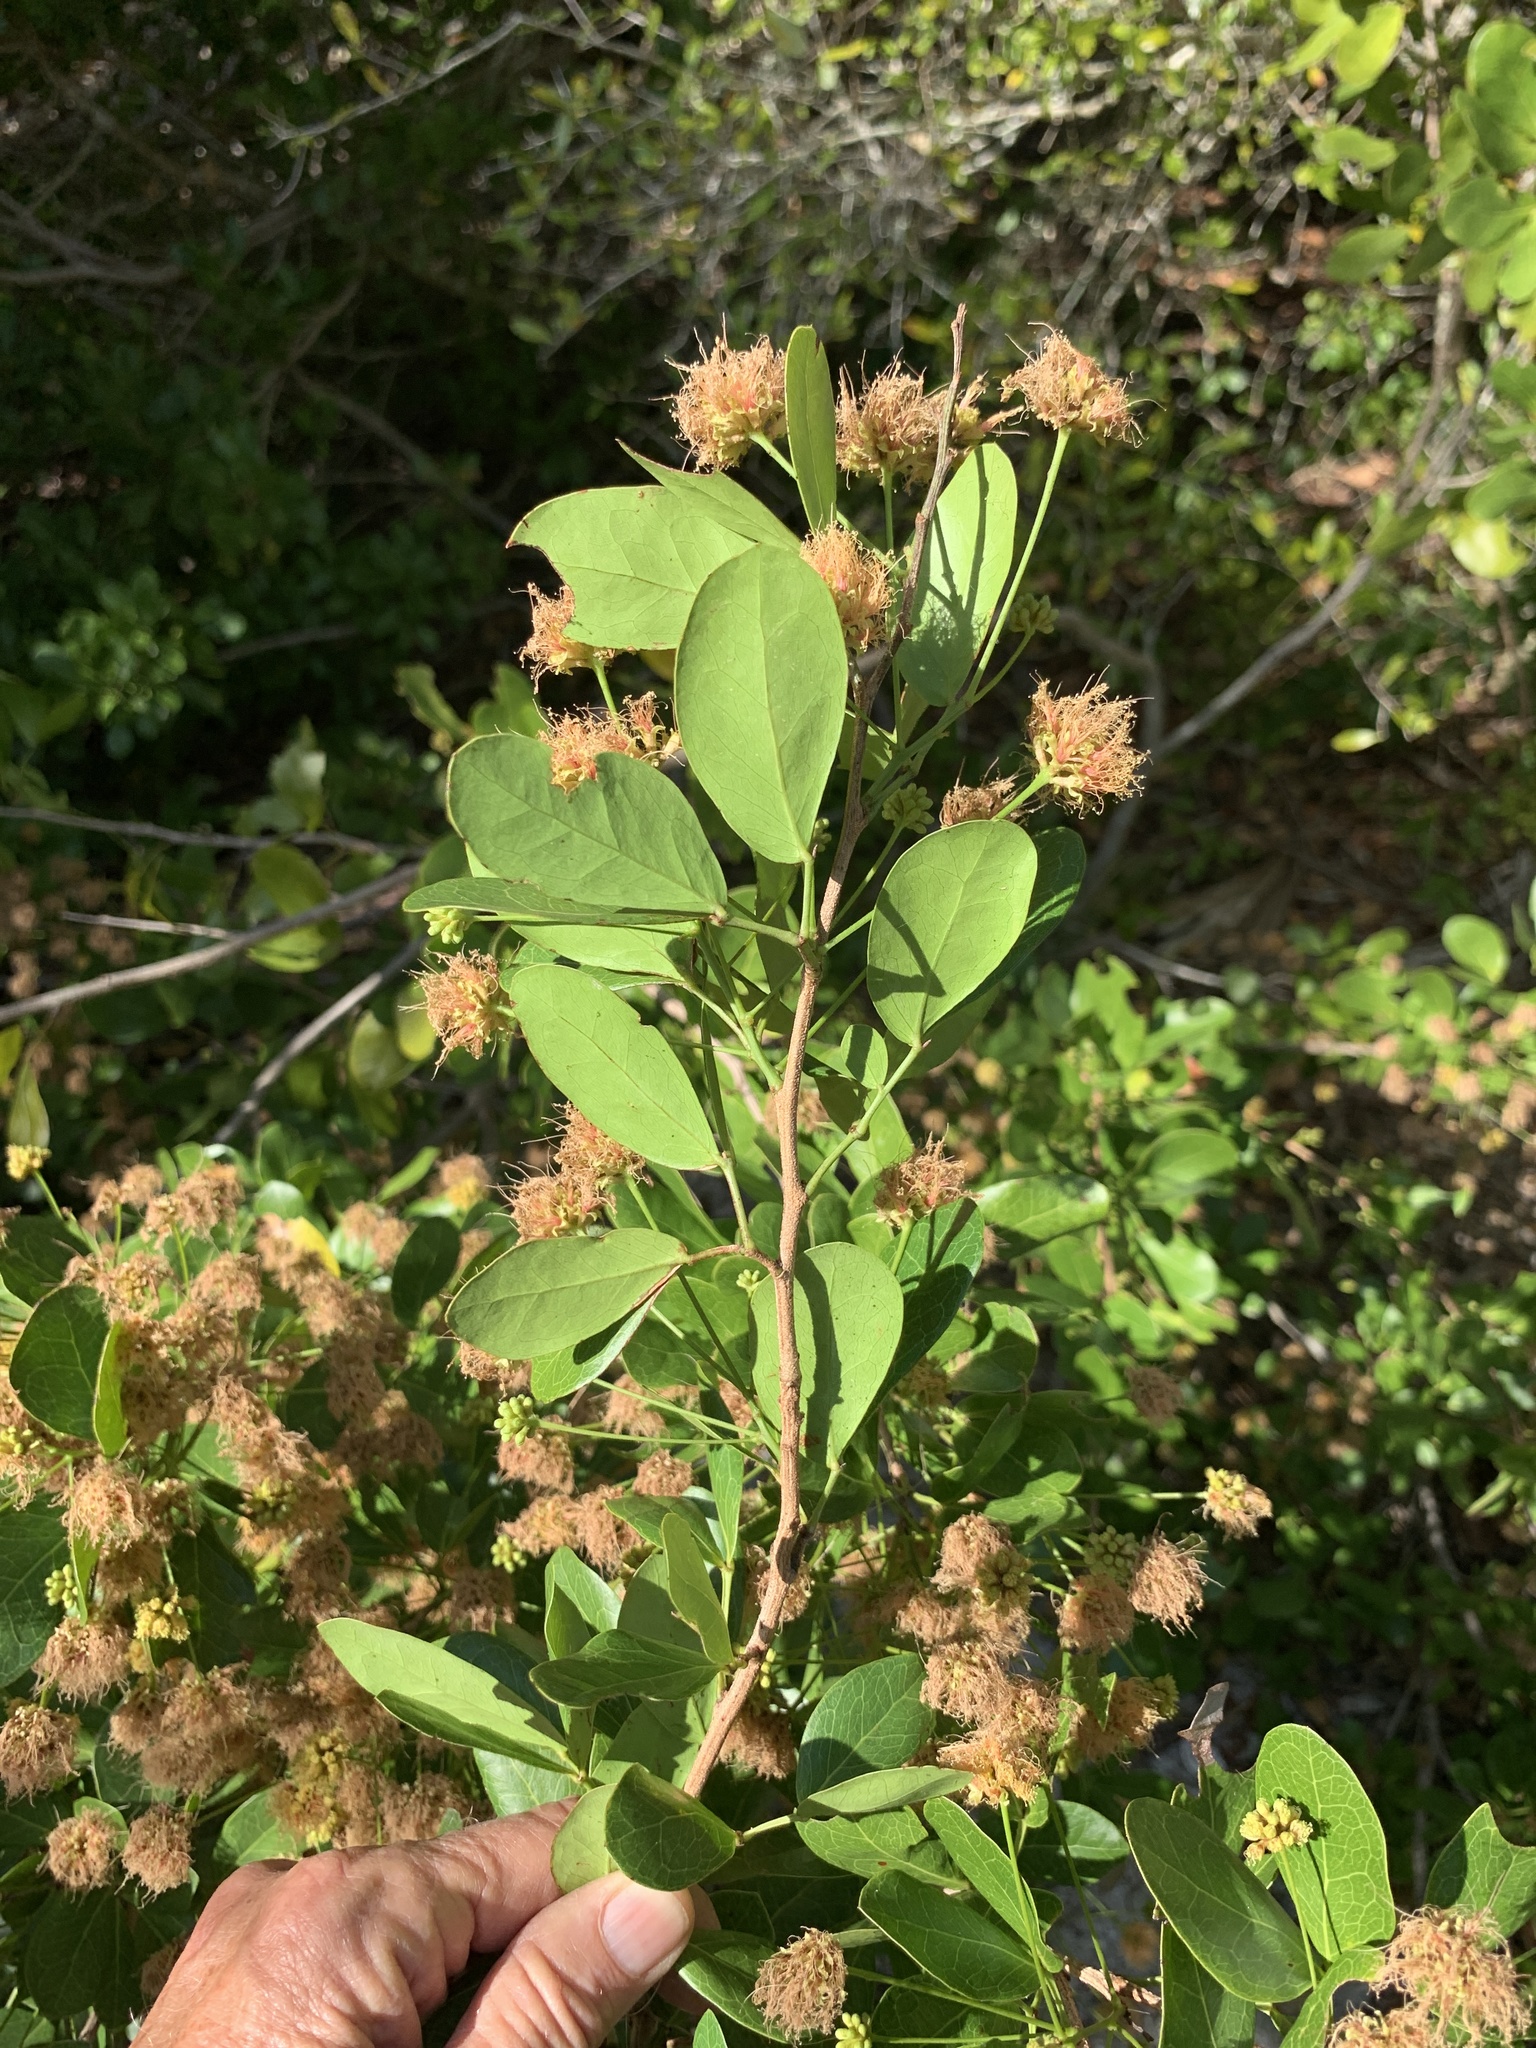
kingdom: Plantae
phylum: Tracheophyta
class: Magnoliopsida
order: Fabales
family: Fabaceae
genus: Pithecellobium
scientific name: Pithecellobium unguis-cati
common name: Cat's-claw
